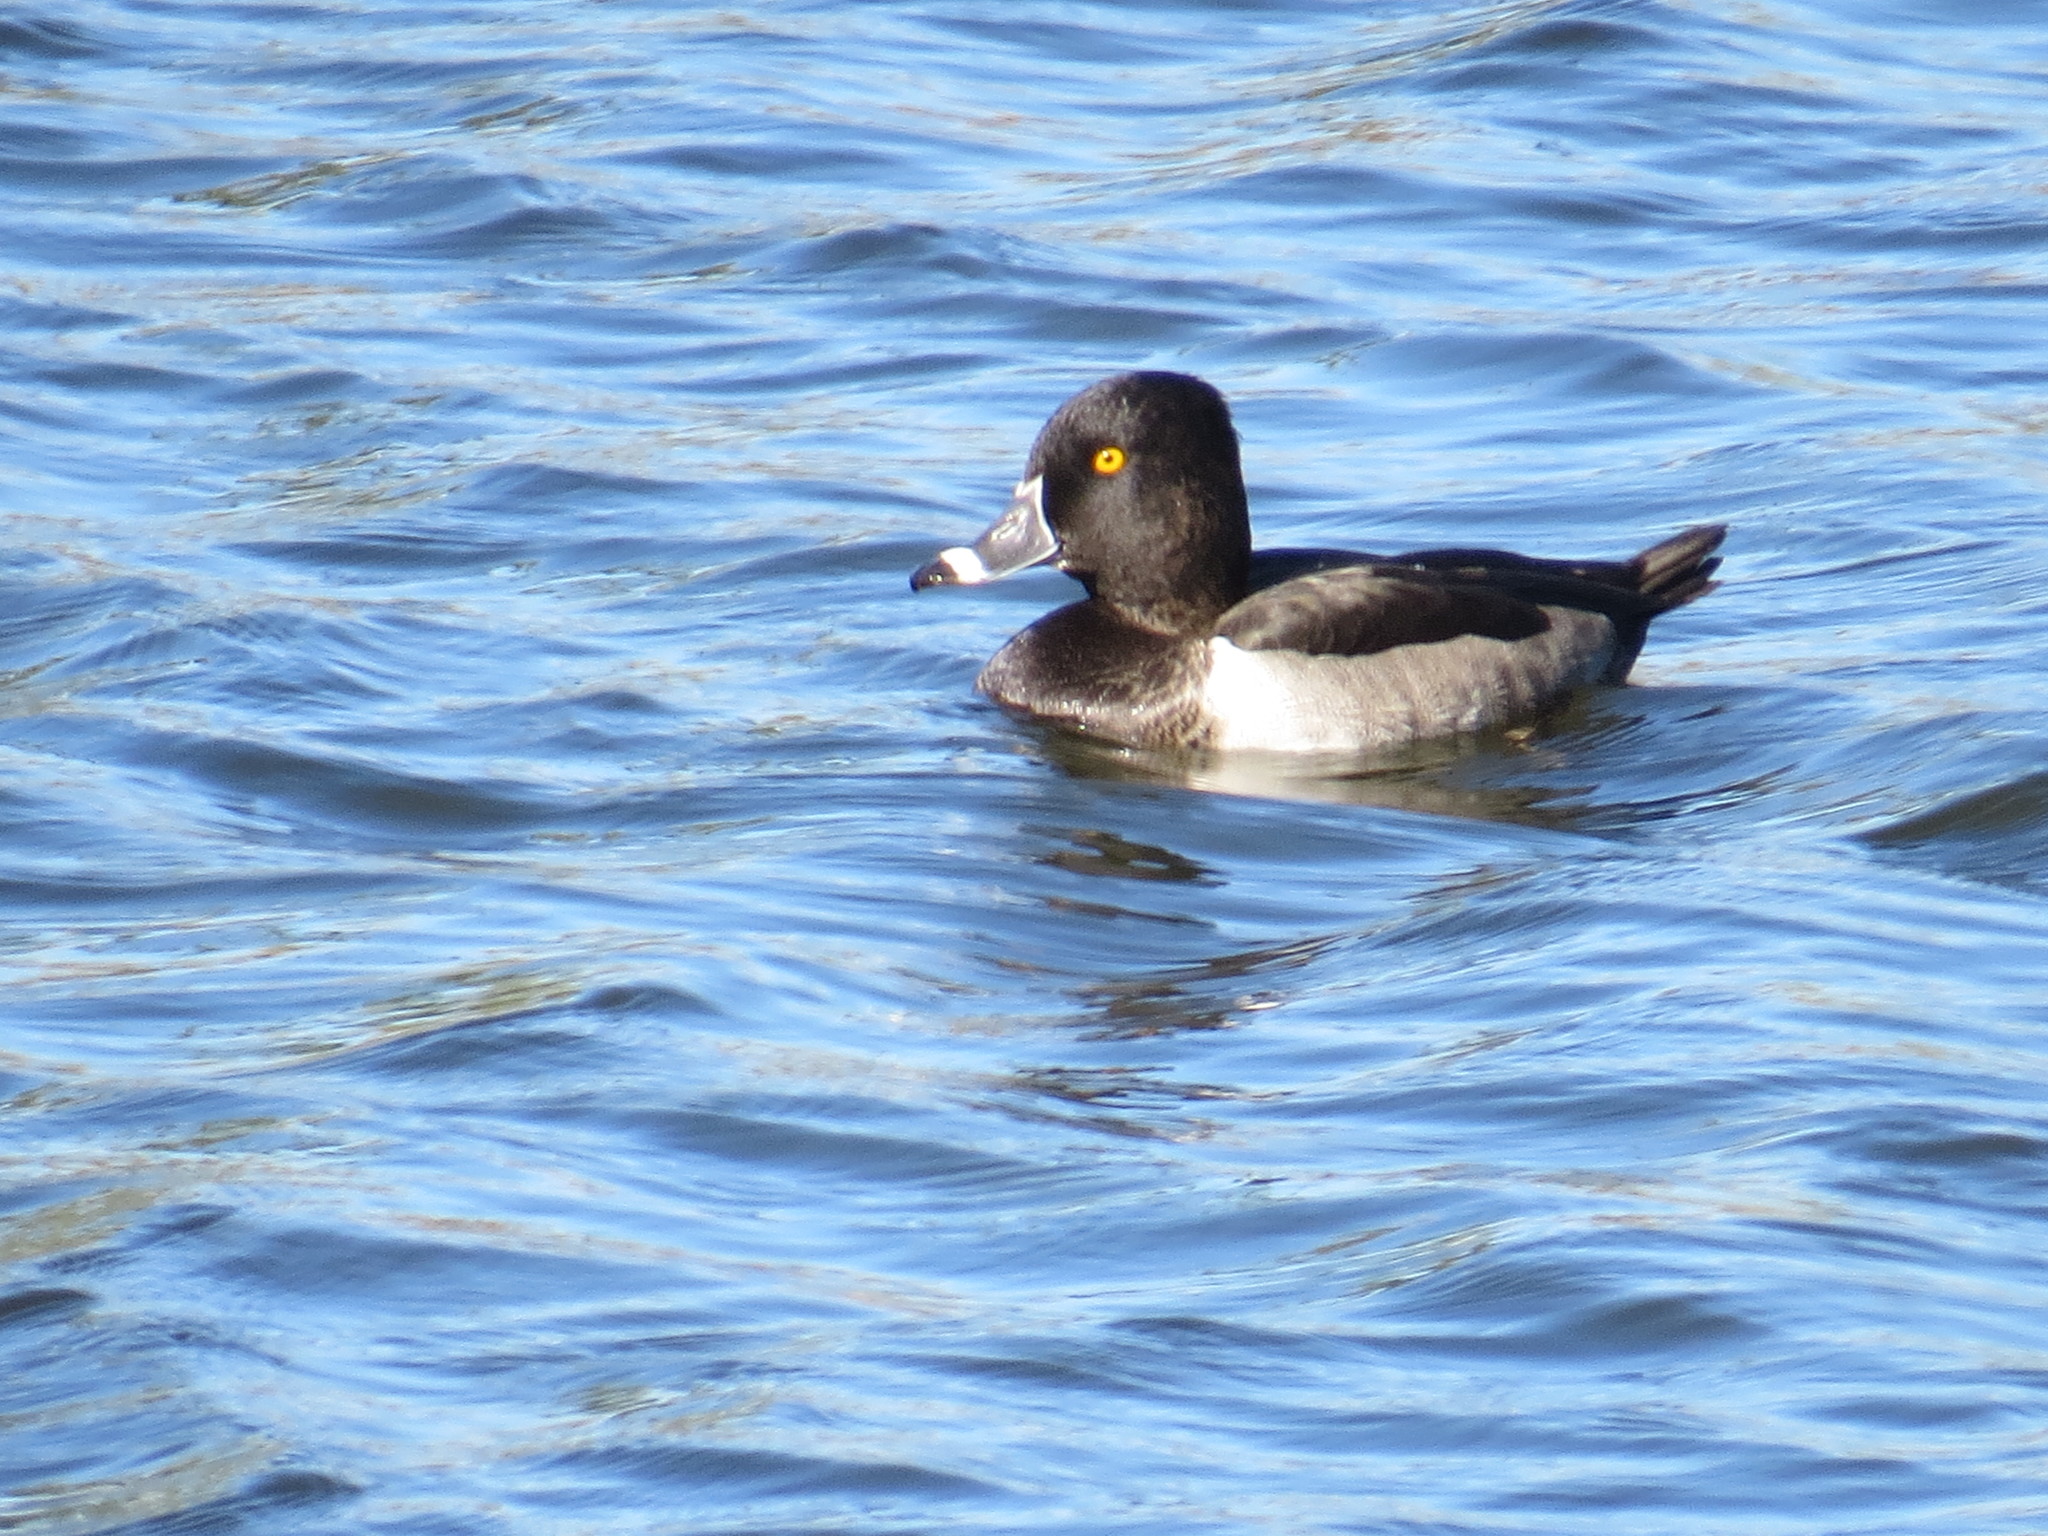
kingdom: Animalia
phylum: Chordata
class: Aves
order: Anseriformes
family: Anatidae
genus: Aythya
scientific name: Aythya collaris
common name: Ring-necked duck
